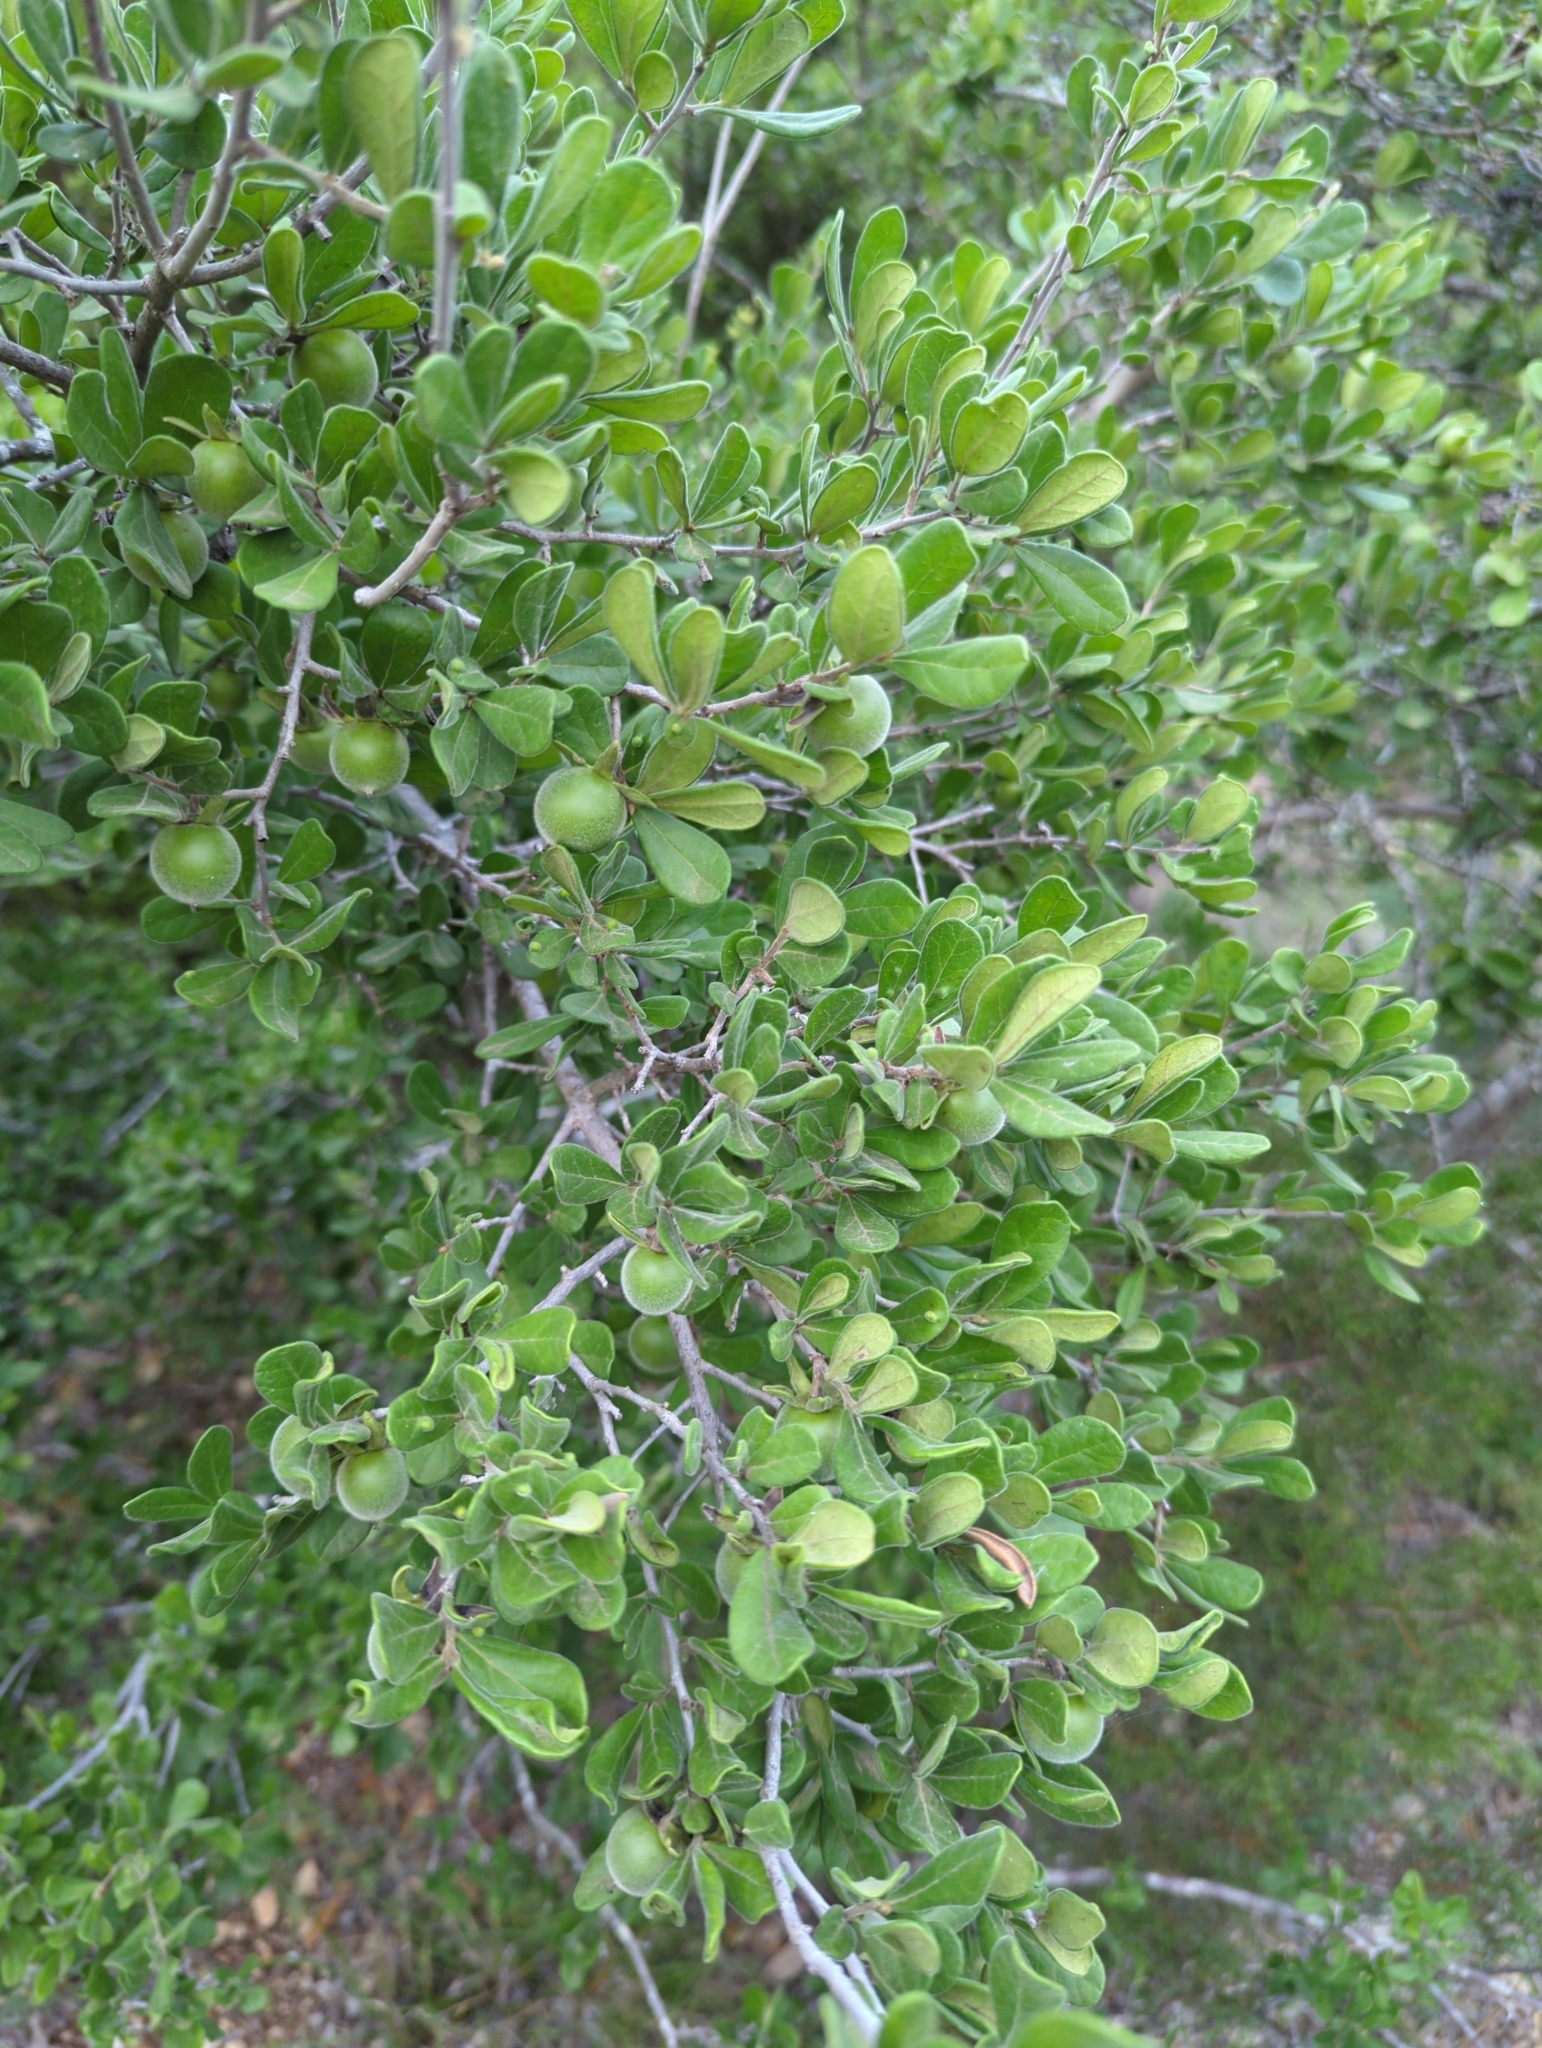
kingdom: Plantae
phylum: Tracheophyta
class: Magnoliopsida
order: Ericales
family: Ebenaceae
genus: Diospyros
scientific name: Diospyros texana
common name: Texas persimmon
